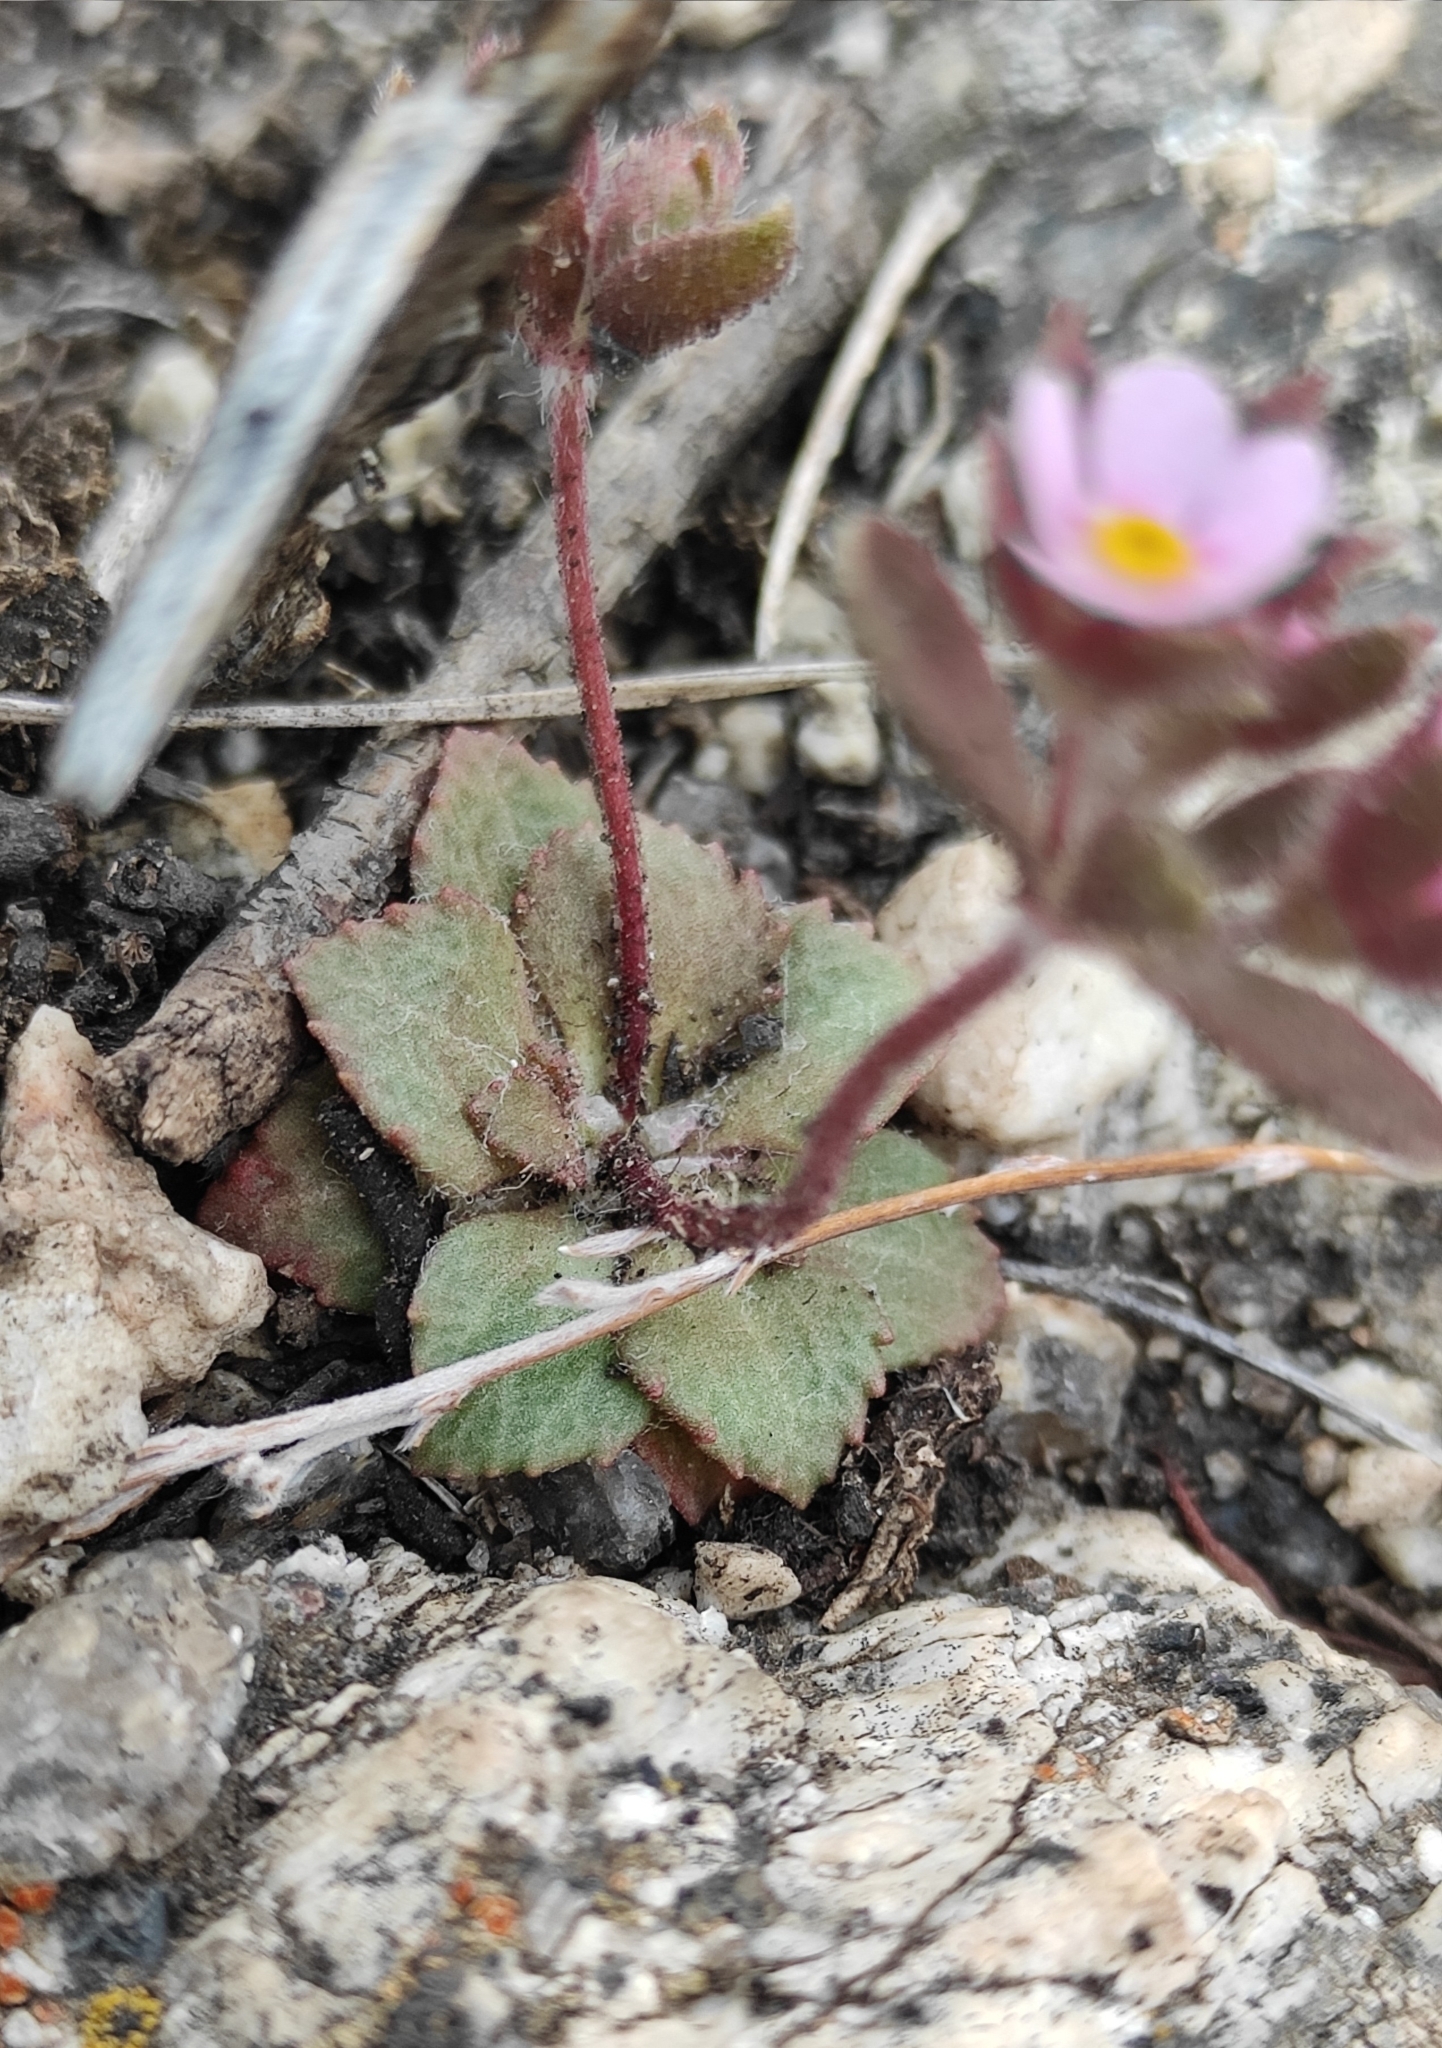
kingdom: Plantae
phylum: Tracheophyta
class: Magnoliopsida
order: Ericales
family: Primulaceae
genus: Androsace
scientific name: Androsace maxima
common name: Annual androsace
